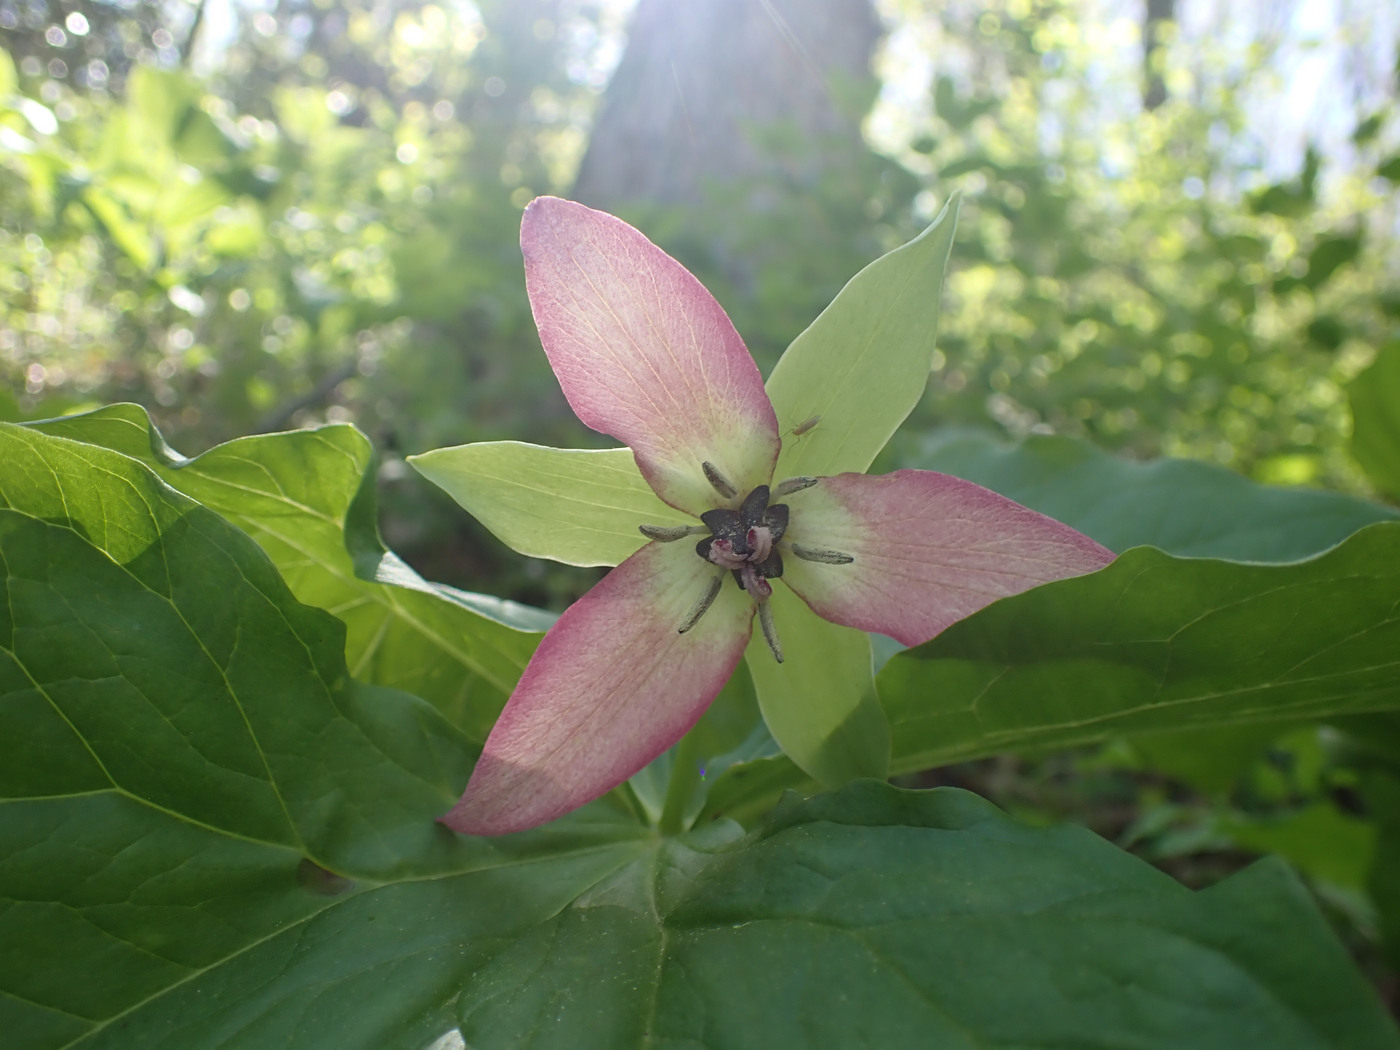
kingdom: Plantae
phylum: Tracheophyta
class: Liliopsida
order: Liliales
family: Melanthiaceae
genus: Trillium
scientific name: Trillium erectum
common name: Purple trillium
